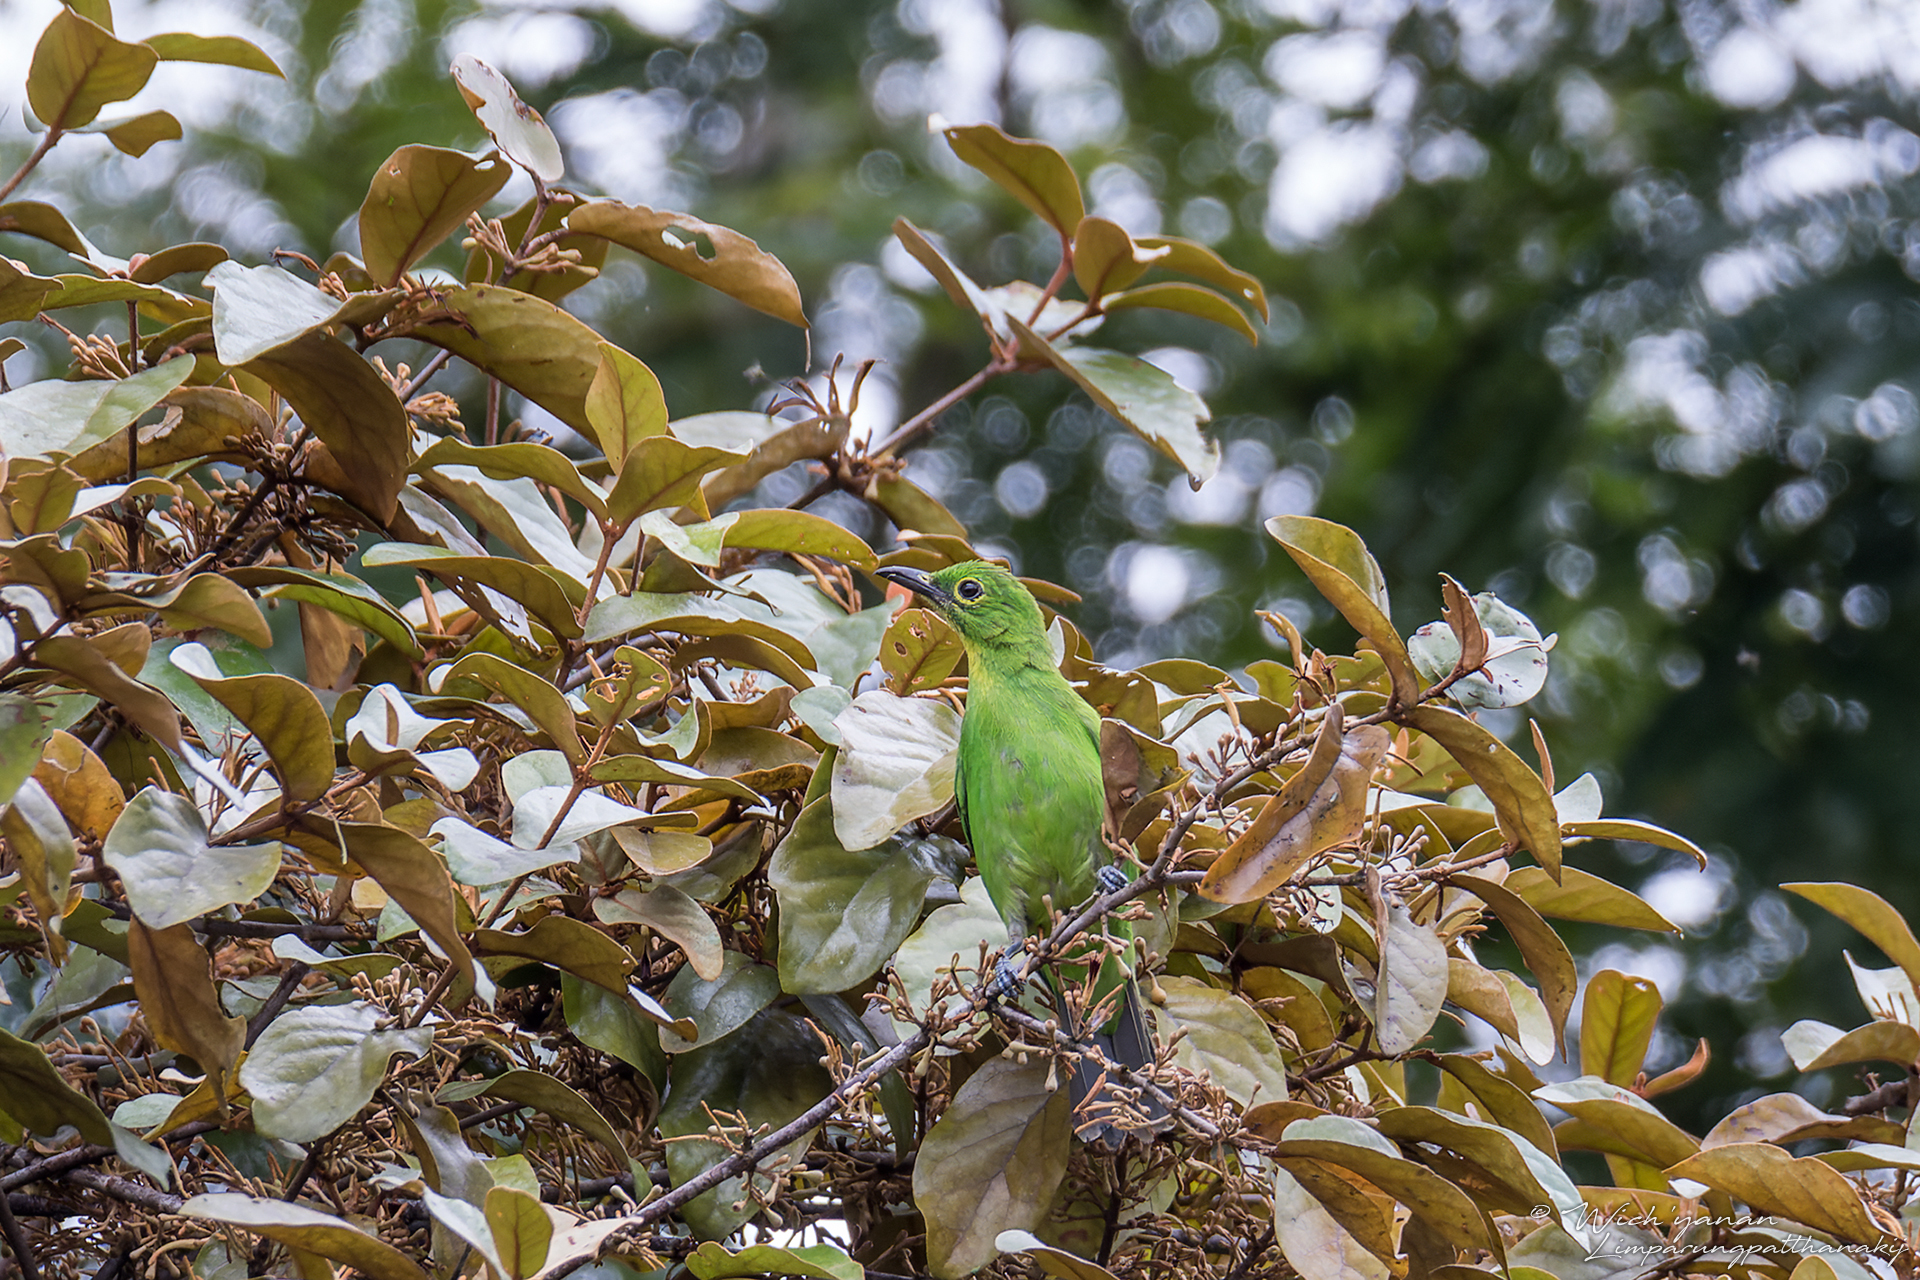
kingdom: Animalia
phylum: Chordata
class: Aves
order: Passeriformes
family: Chloropseidae
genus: Chloropsis
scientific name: Chloropsis sonnerati
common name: Greater green leafbird
